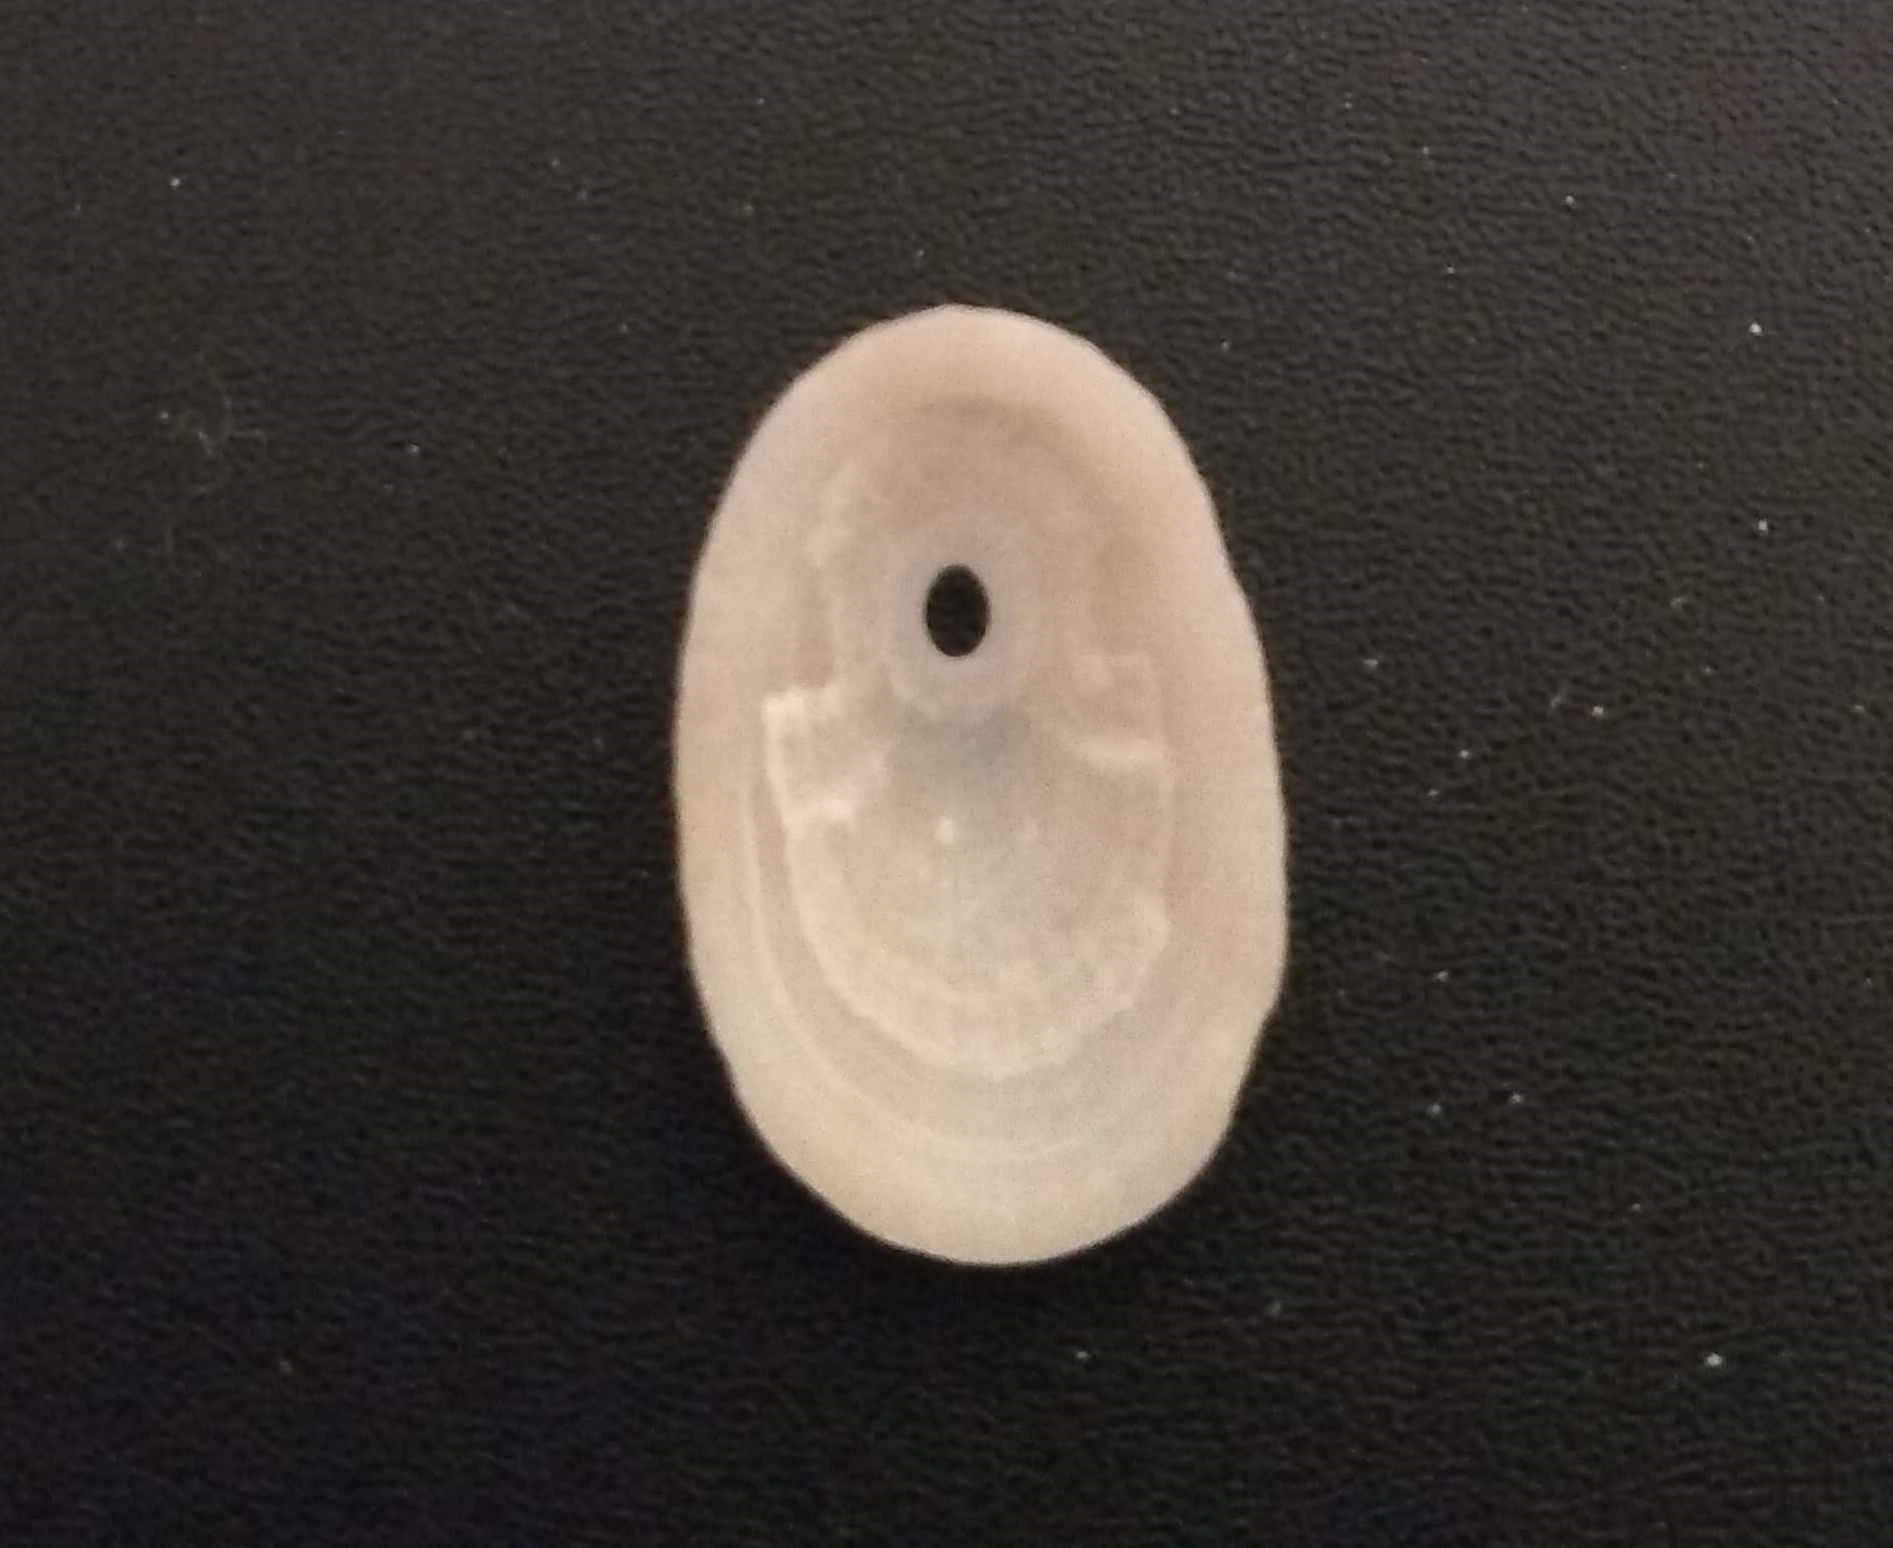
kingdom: Animalia
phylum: Mollusca
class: Gastropoda
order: Lepetellida
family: Fissurellidae
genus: Diodora
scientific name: Diodora jaumei
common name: Jaume keyhole limpet
